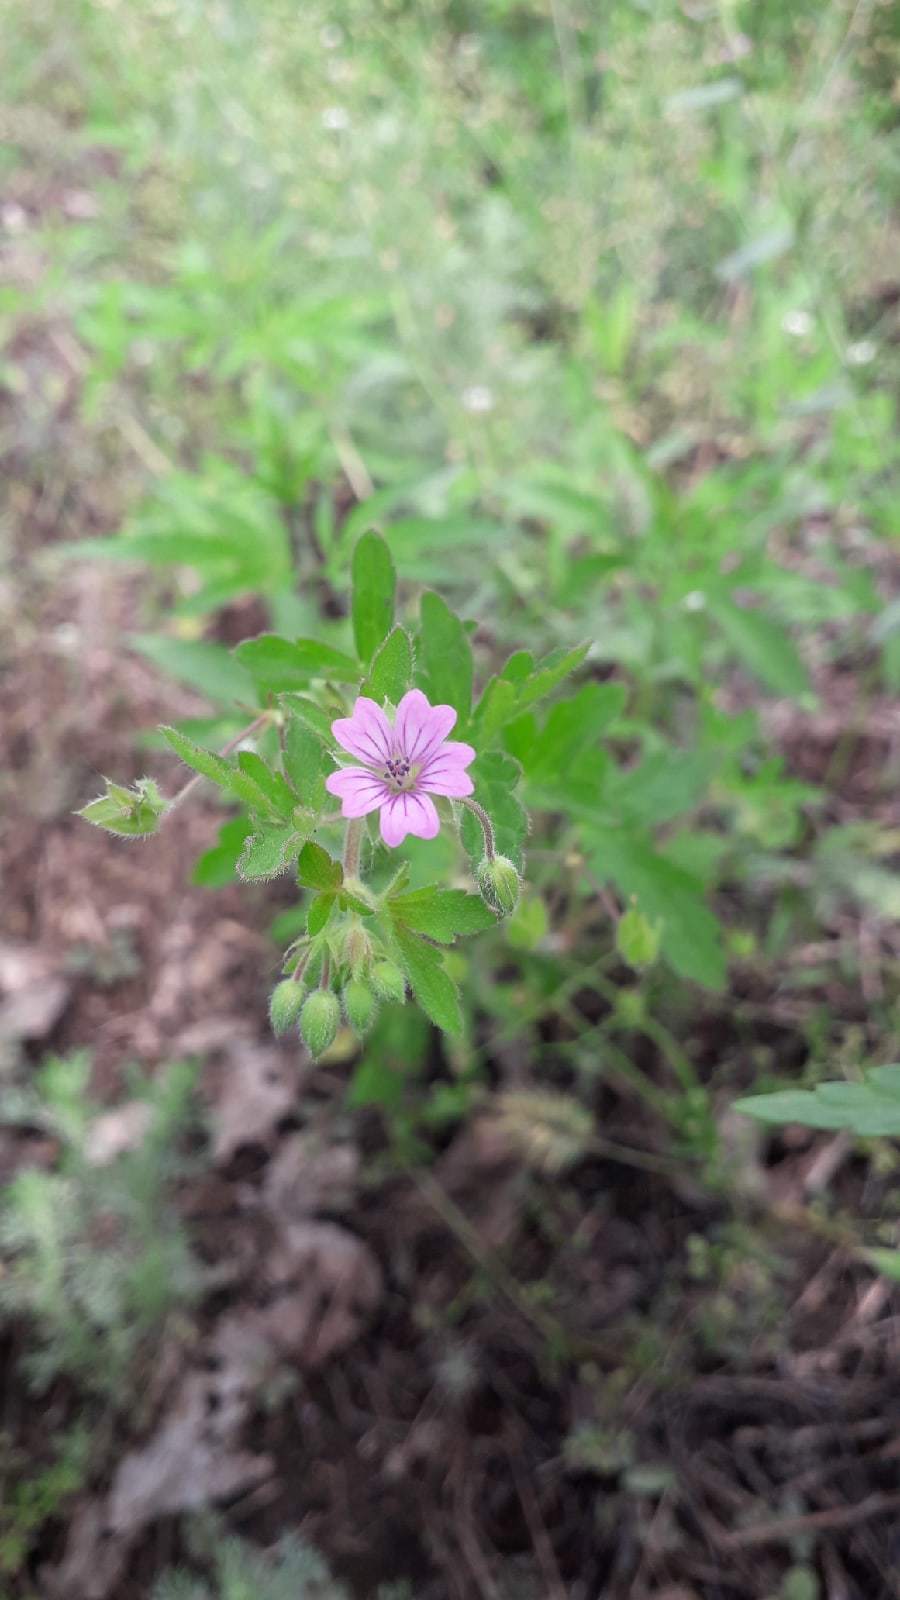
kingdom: Plantae
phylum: Tracheophyta
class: Magnoliopsida
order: Geraniales
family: Geraniaceae
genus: Geranium
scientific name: Geranium divaricatum
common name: Spreading crane's-bill
